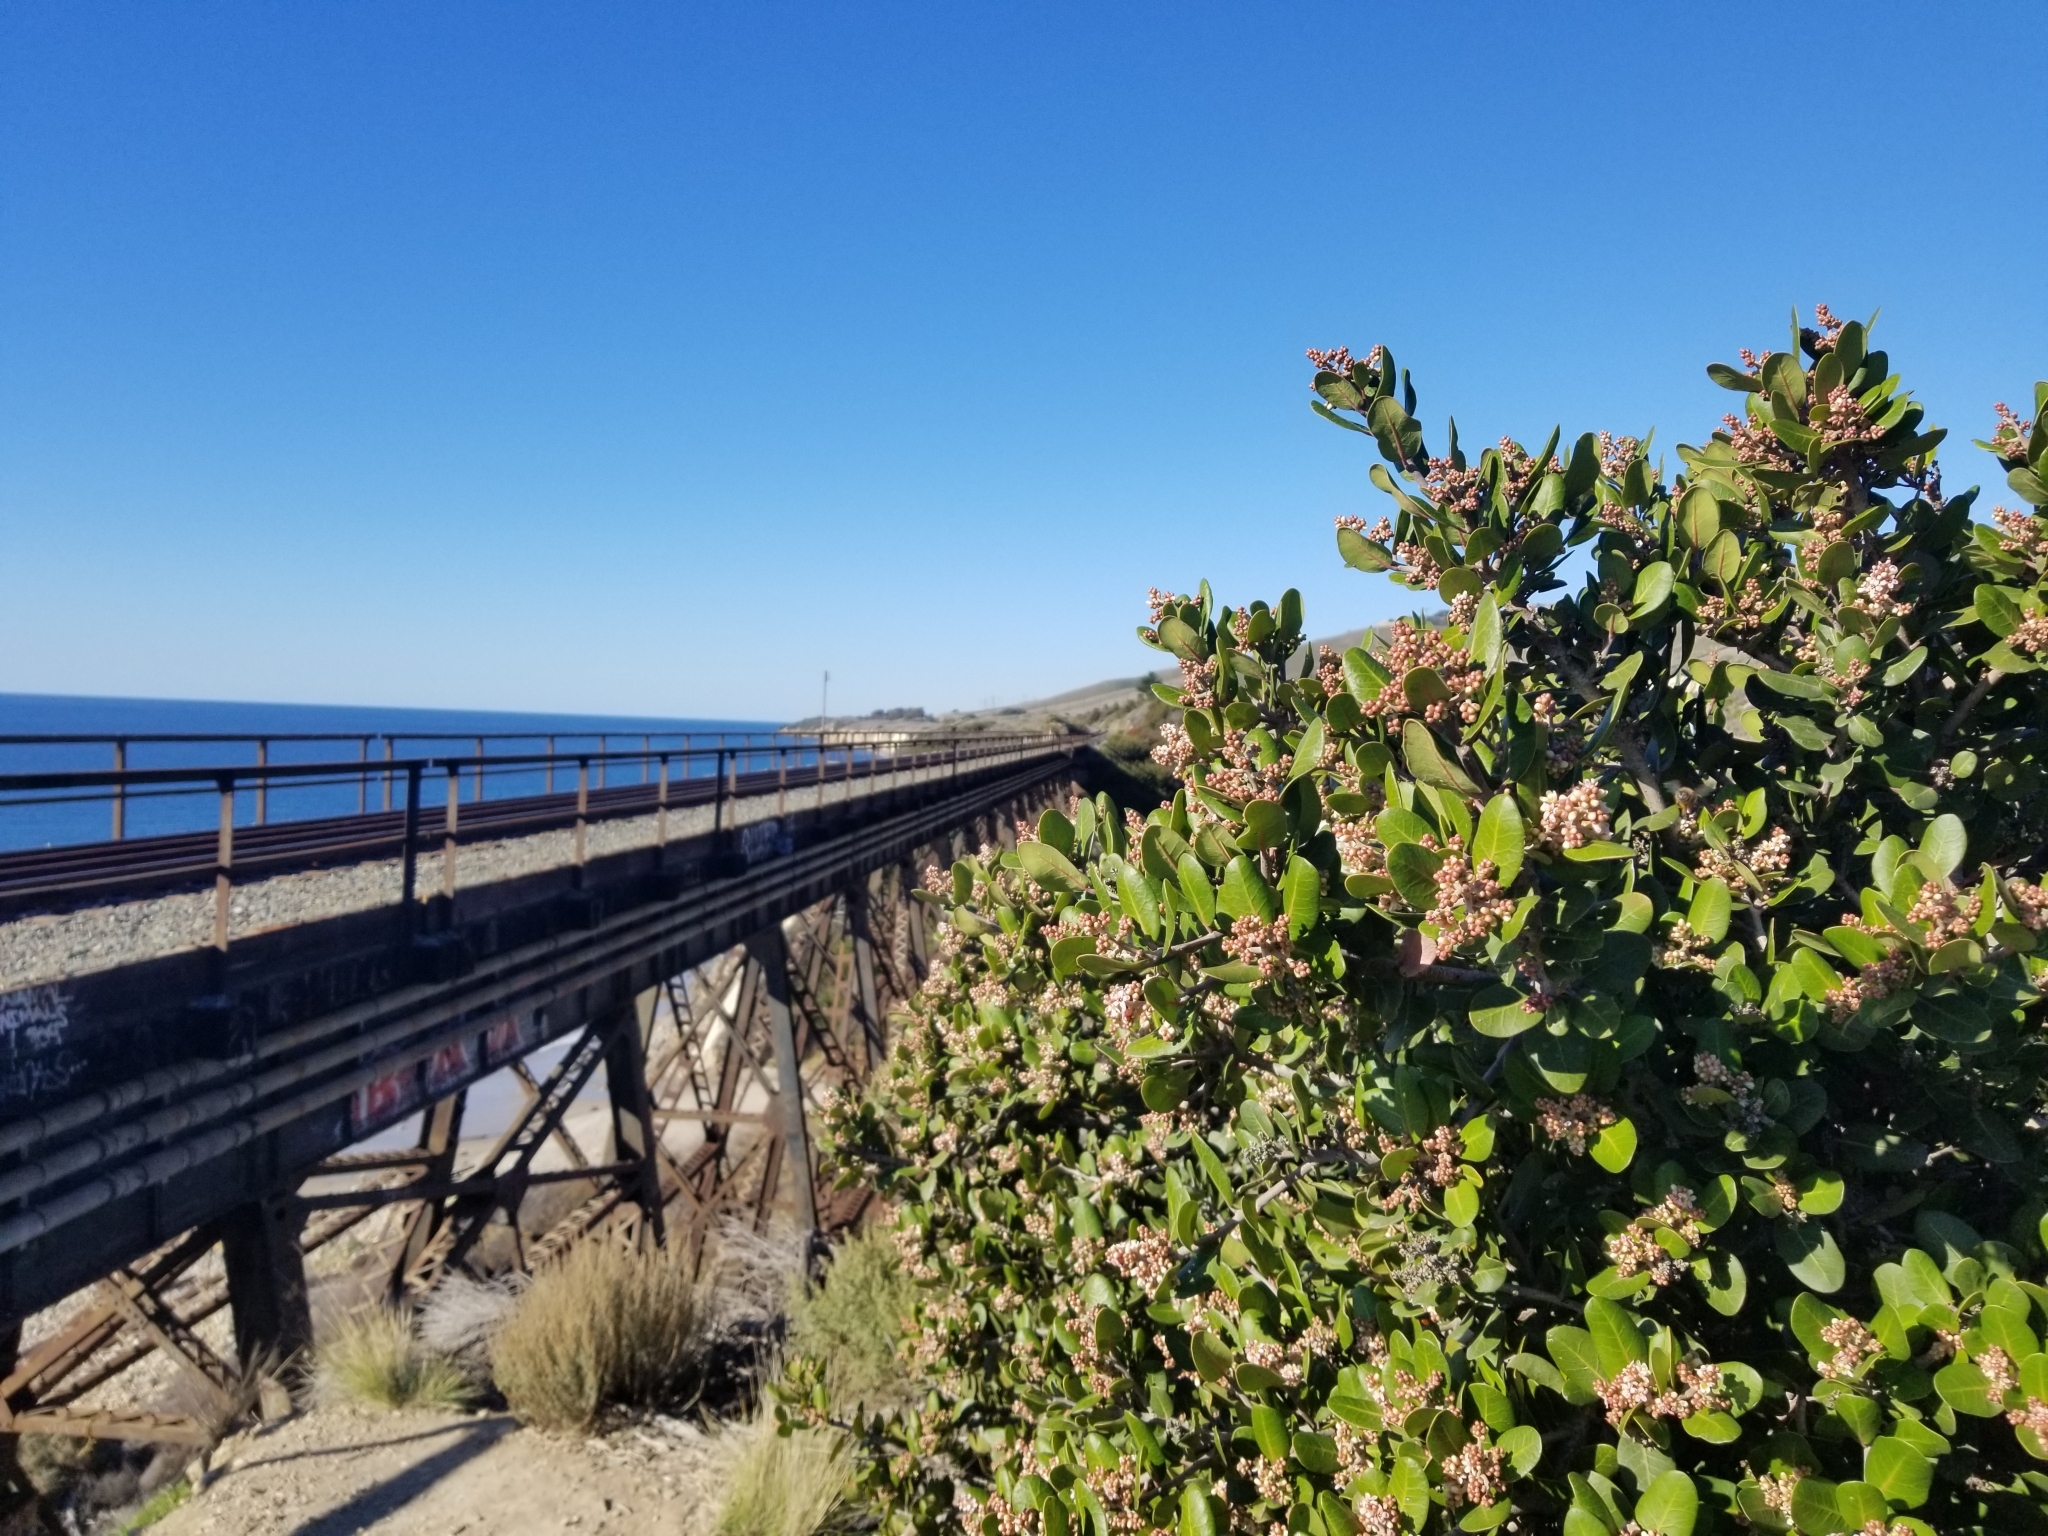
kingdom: Plantae
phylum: Tracheophyta
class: Magnoliopsida
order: Sapindales
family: Anacardiaceae
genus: Rhus
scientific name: Rhus integrifolia
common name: Lemonade sumac
